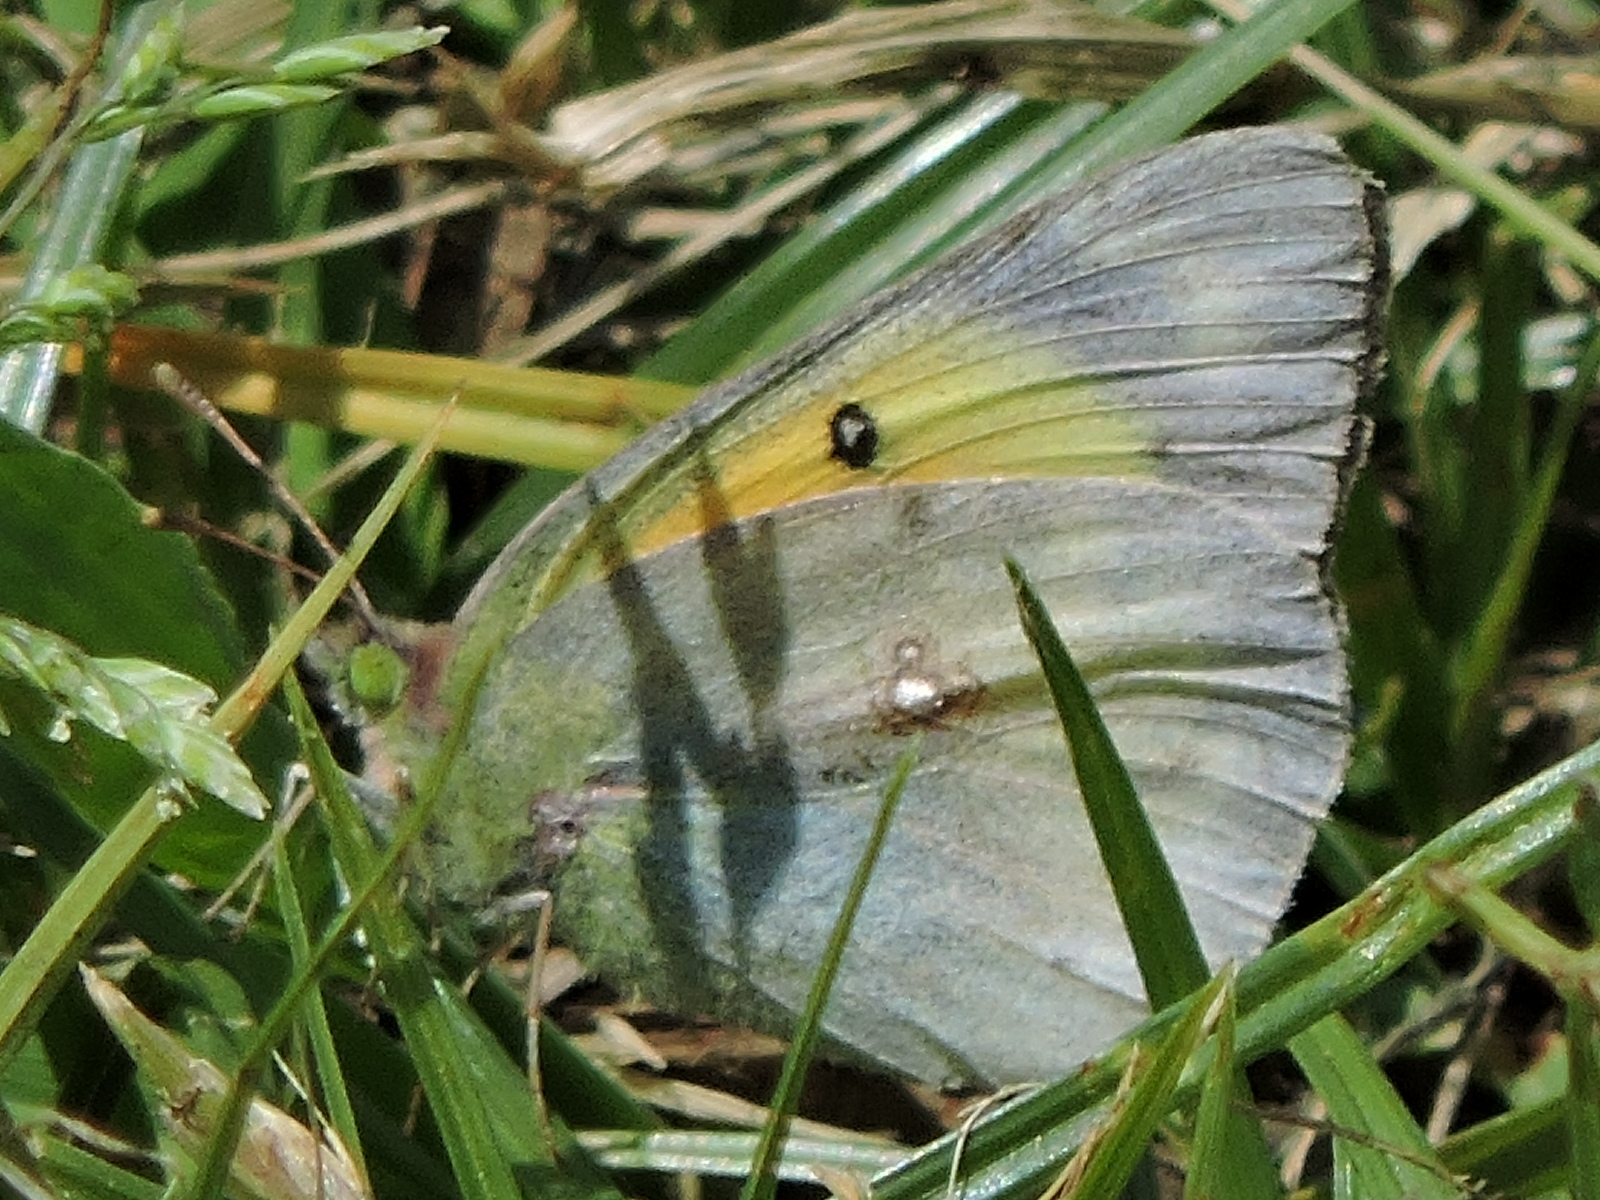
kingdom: Animalia
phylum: Arthropoda
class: Insecta
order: Lepidoptera
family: Pieridae
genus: Colias
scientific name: Colias eurytheme
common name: Alfalfa butterfly
